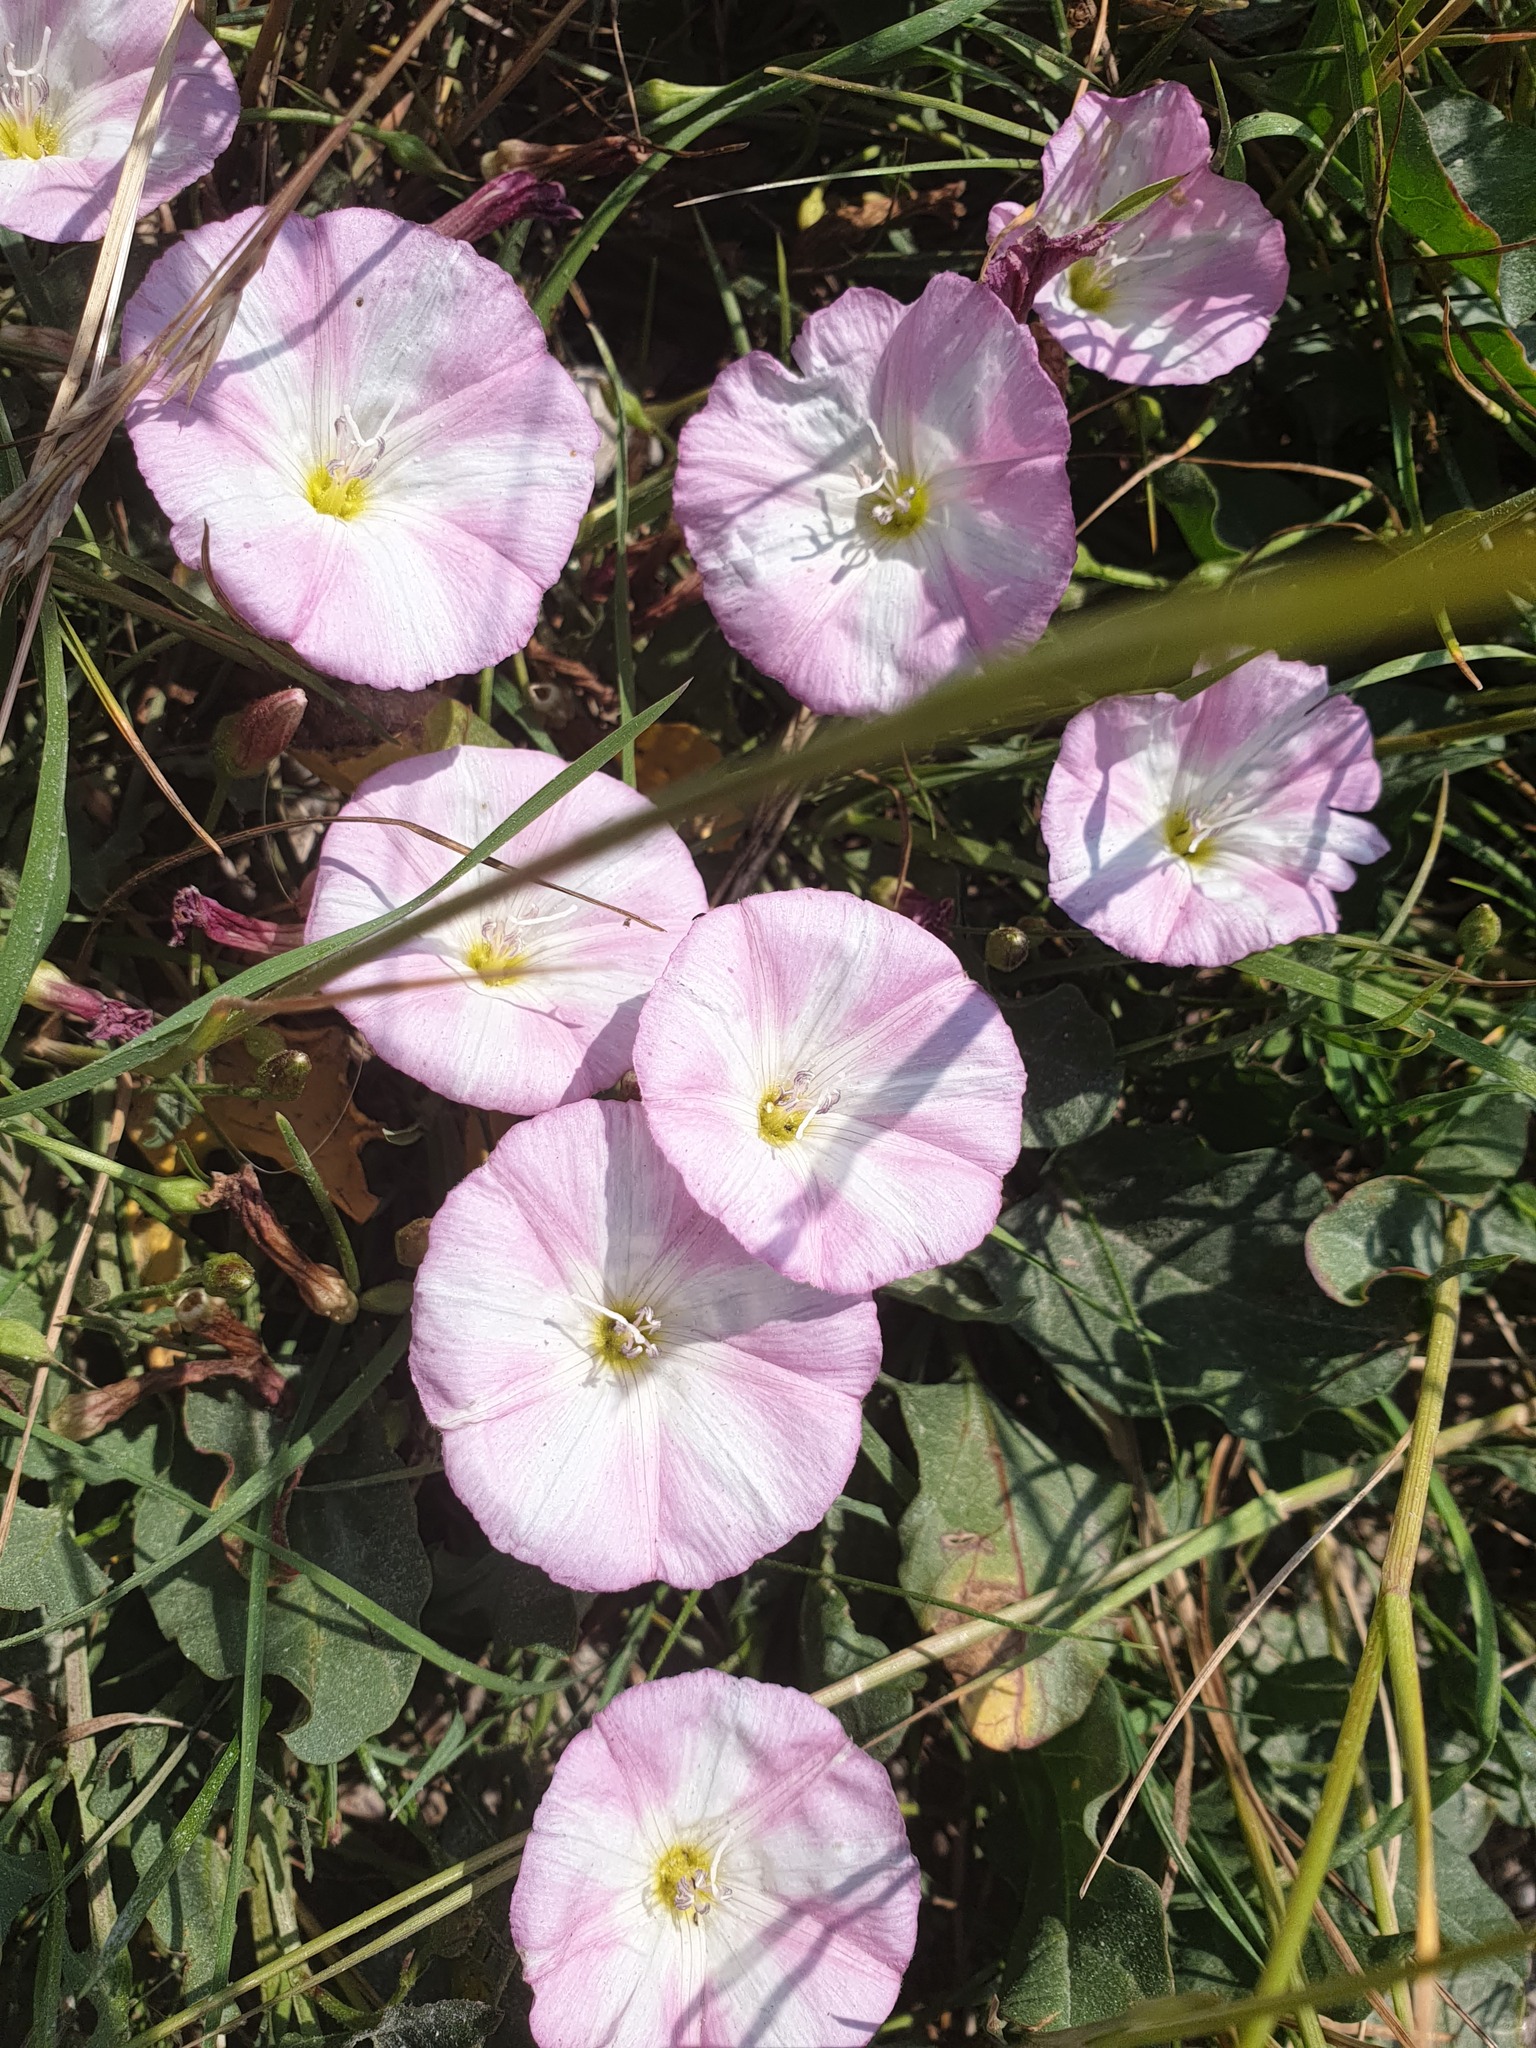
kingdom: Plantae
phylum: Tracheophyta
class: Magnoliopsida
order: Solanales
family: Convolvulaceae
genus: Convolvulus
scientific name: Convolvulus arvensis
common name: Field bindweed
